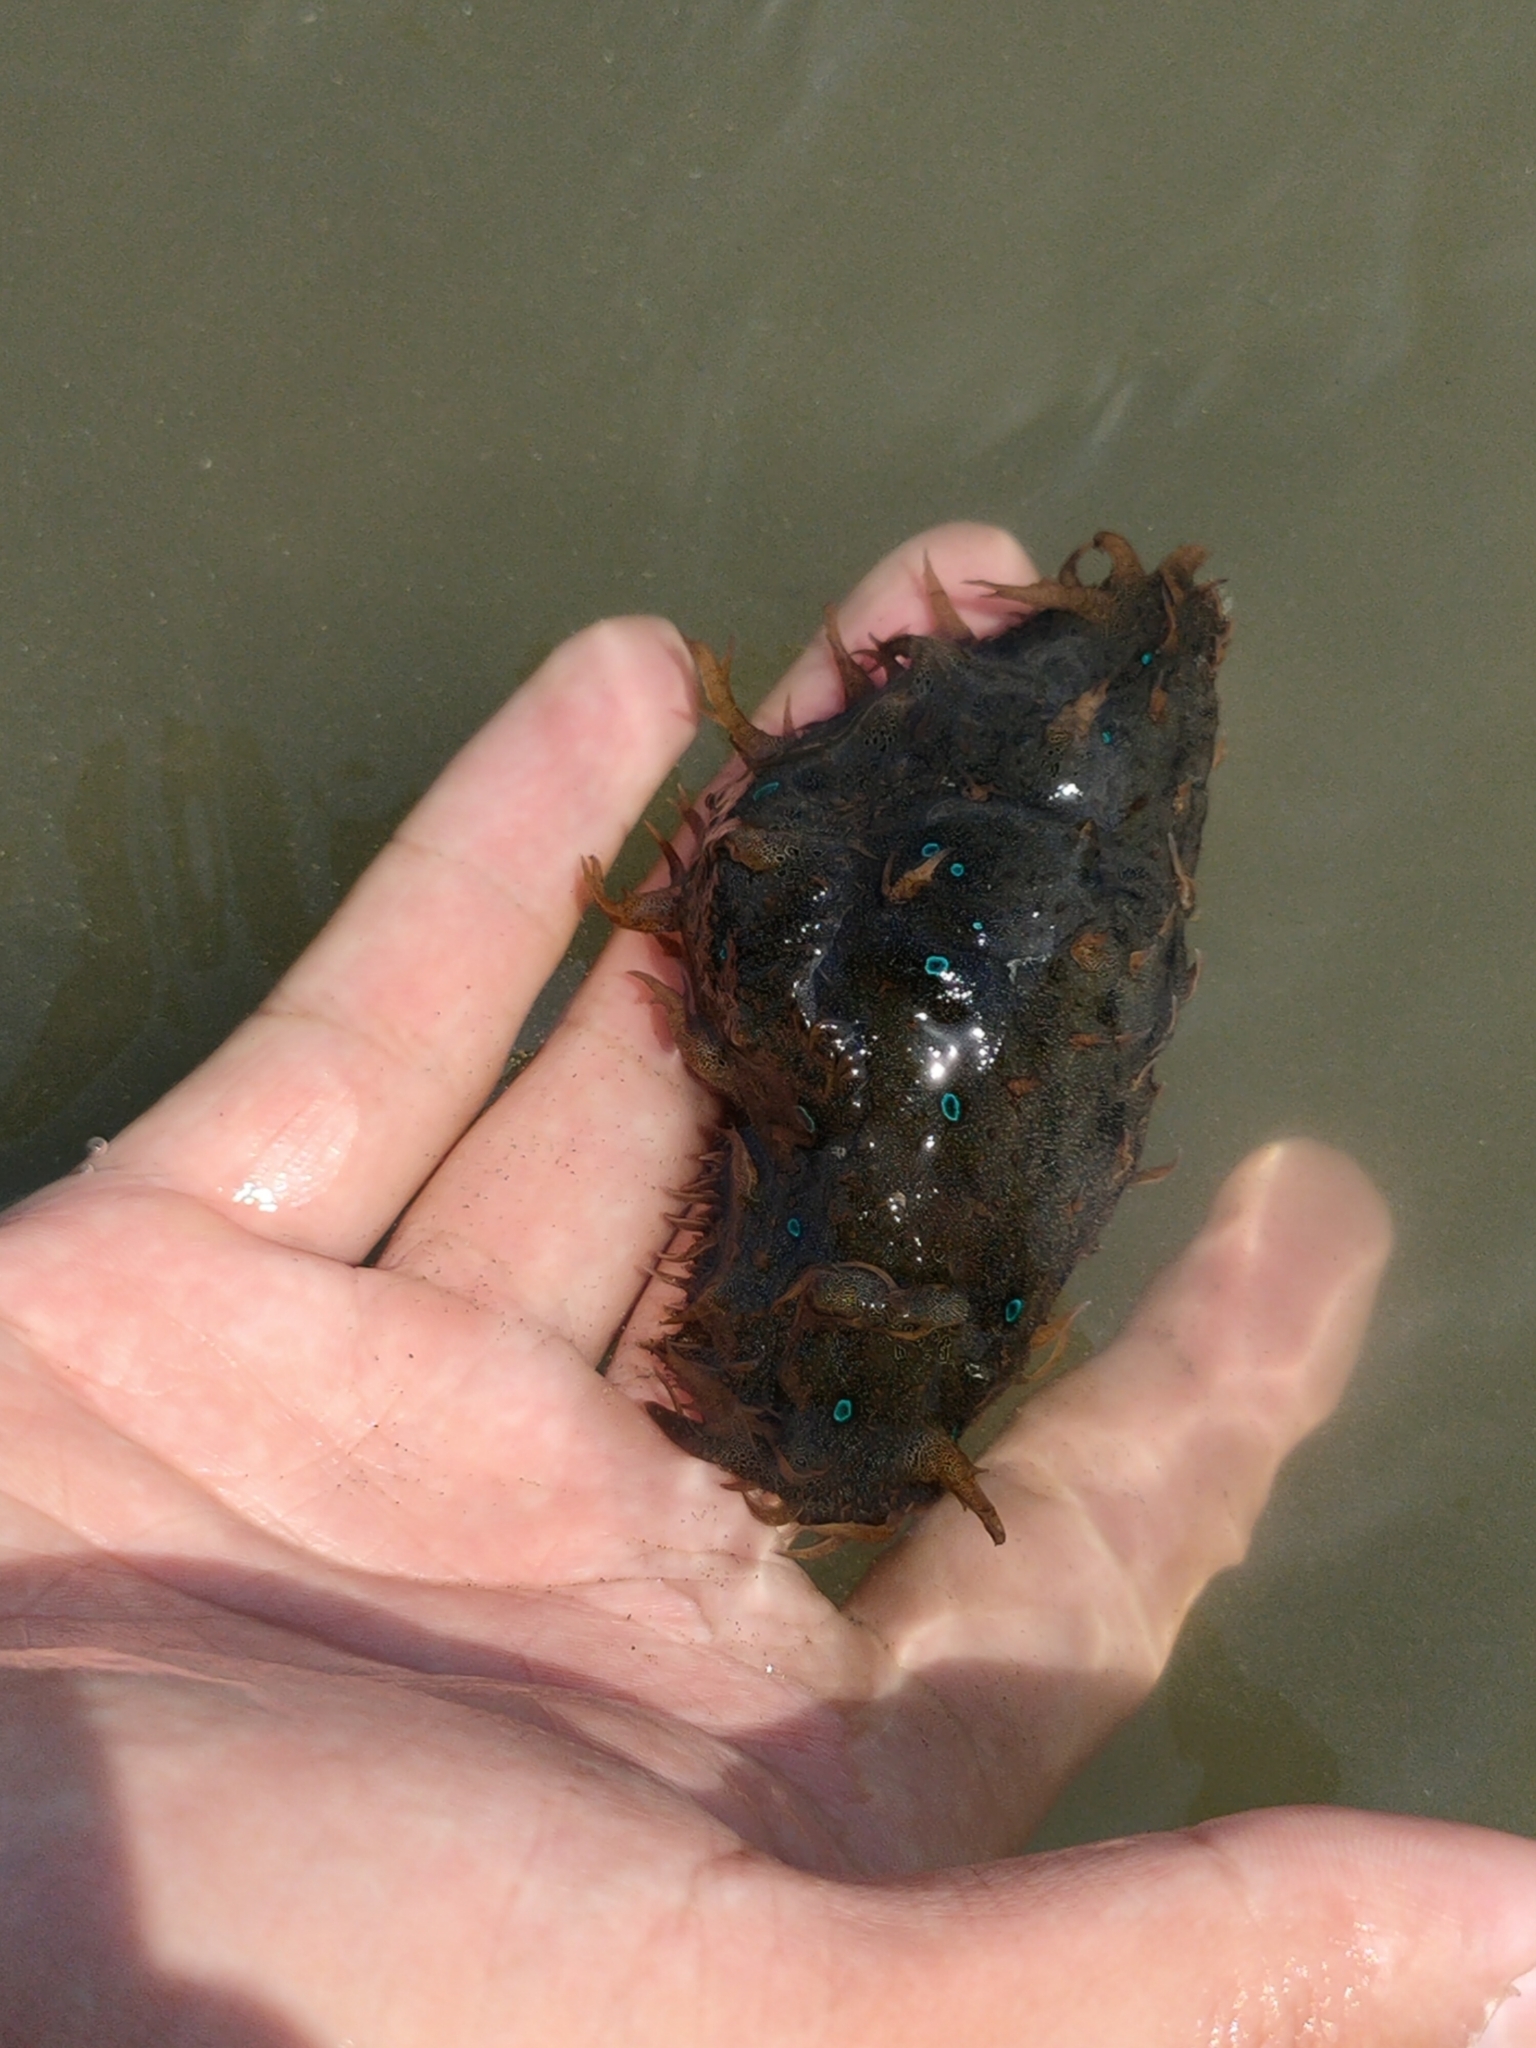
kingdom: Animalia
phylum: Mollusca
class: Gastropoda
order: Aplysiida
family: Aplysiidae
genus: Bursatella
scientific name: Bursatella leachii
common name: Shaggy sea hare
